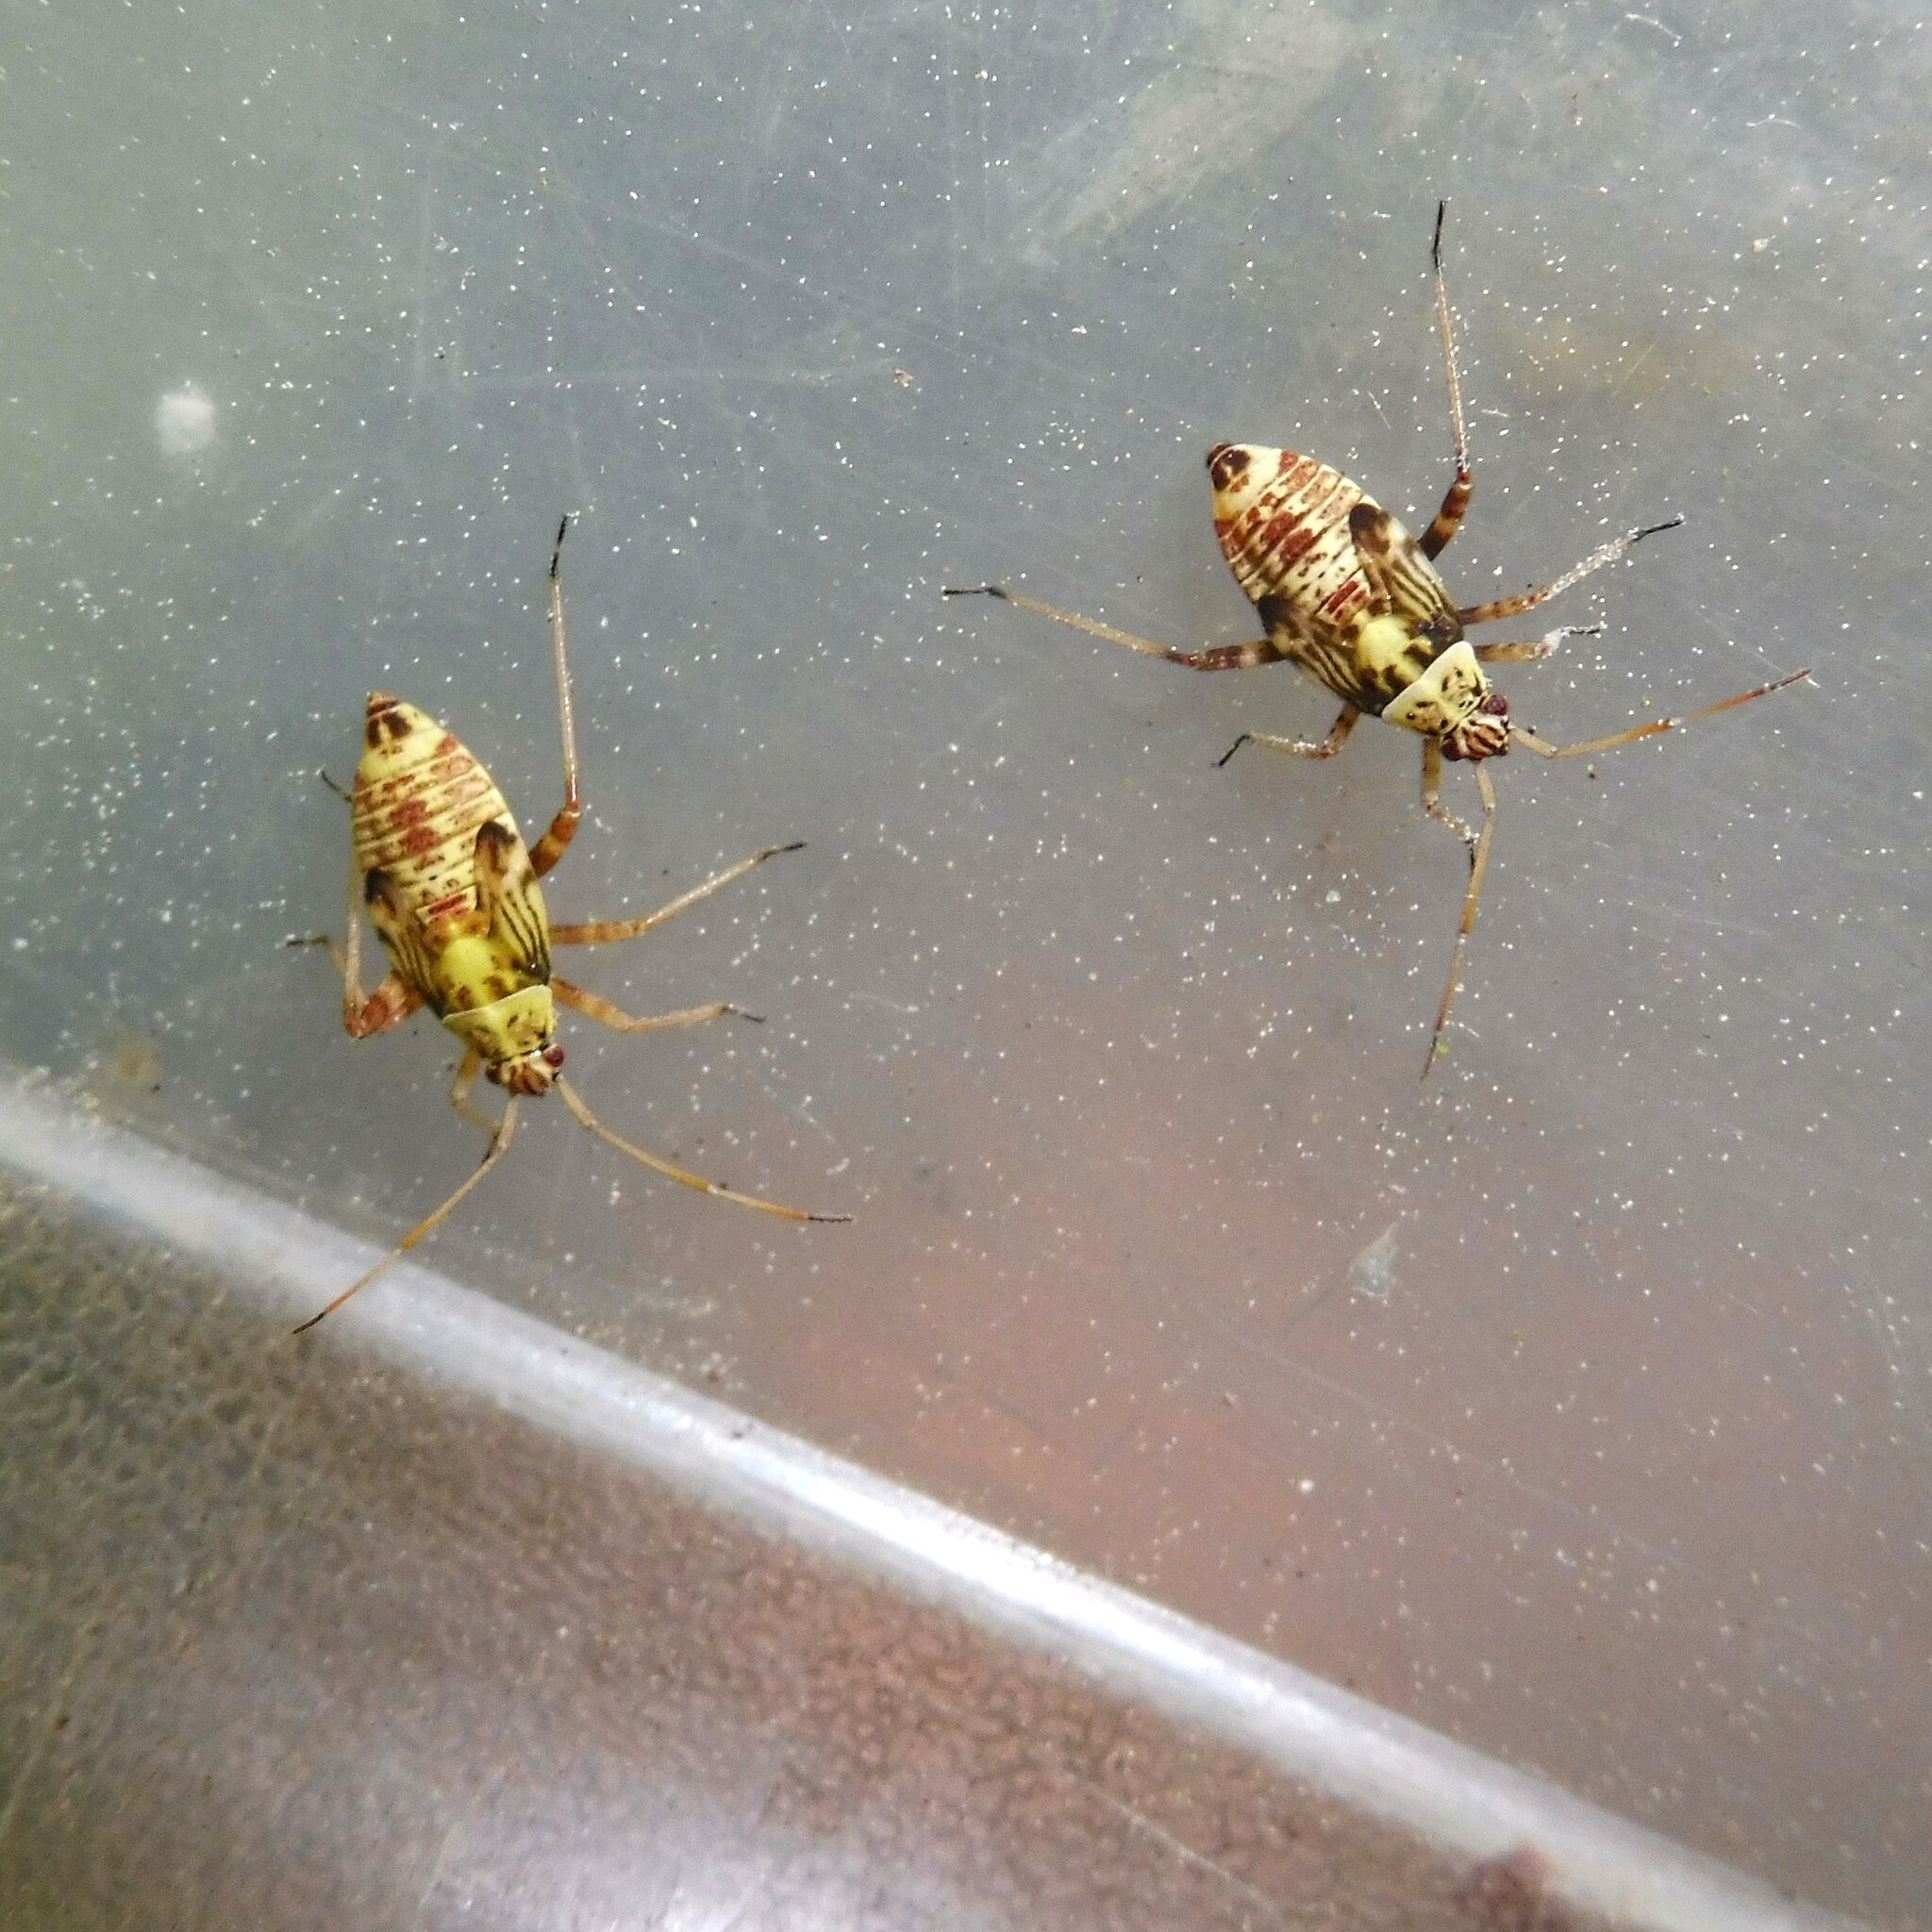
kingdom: Animalia
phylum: Arthropoda
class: Insecta
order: Hemiptera
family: Miridae
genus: Rhabdomiris
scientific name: Rhabdomiris striatellus
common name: Plant bug
